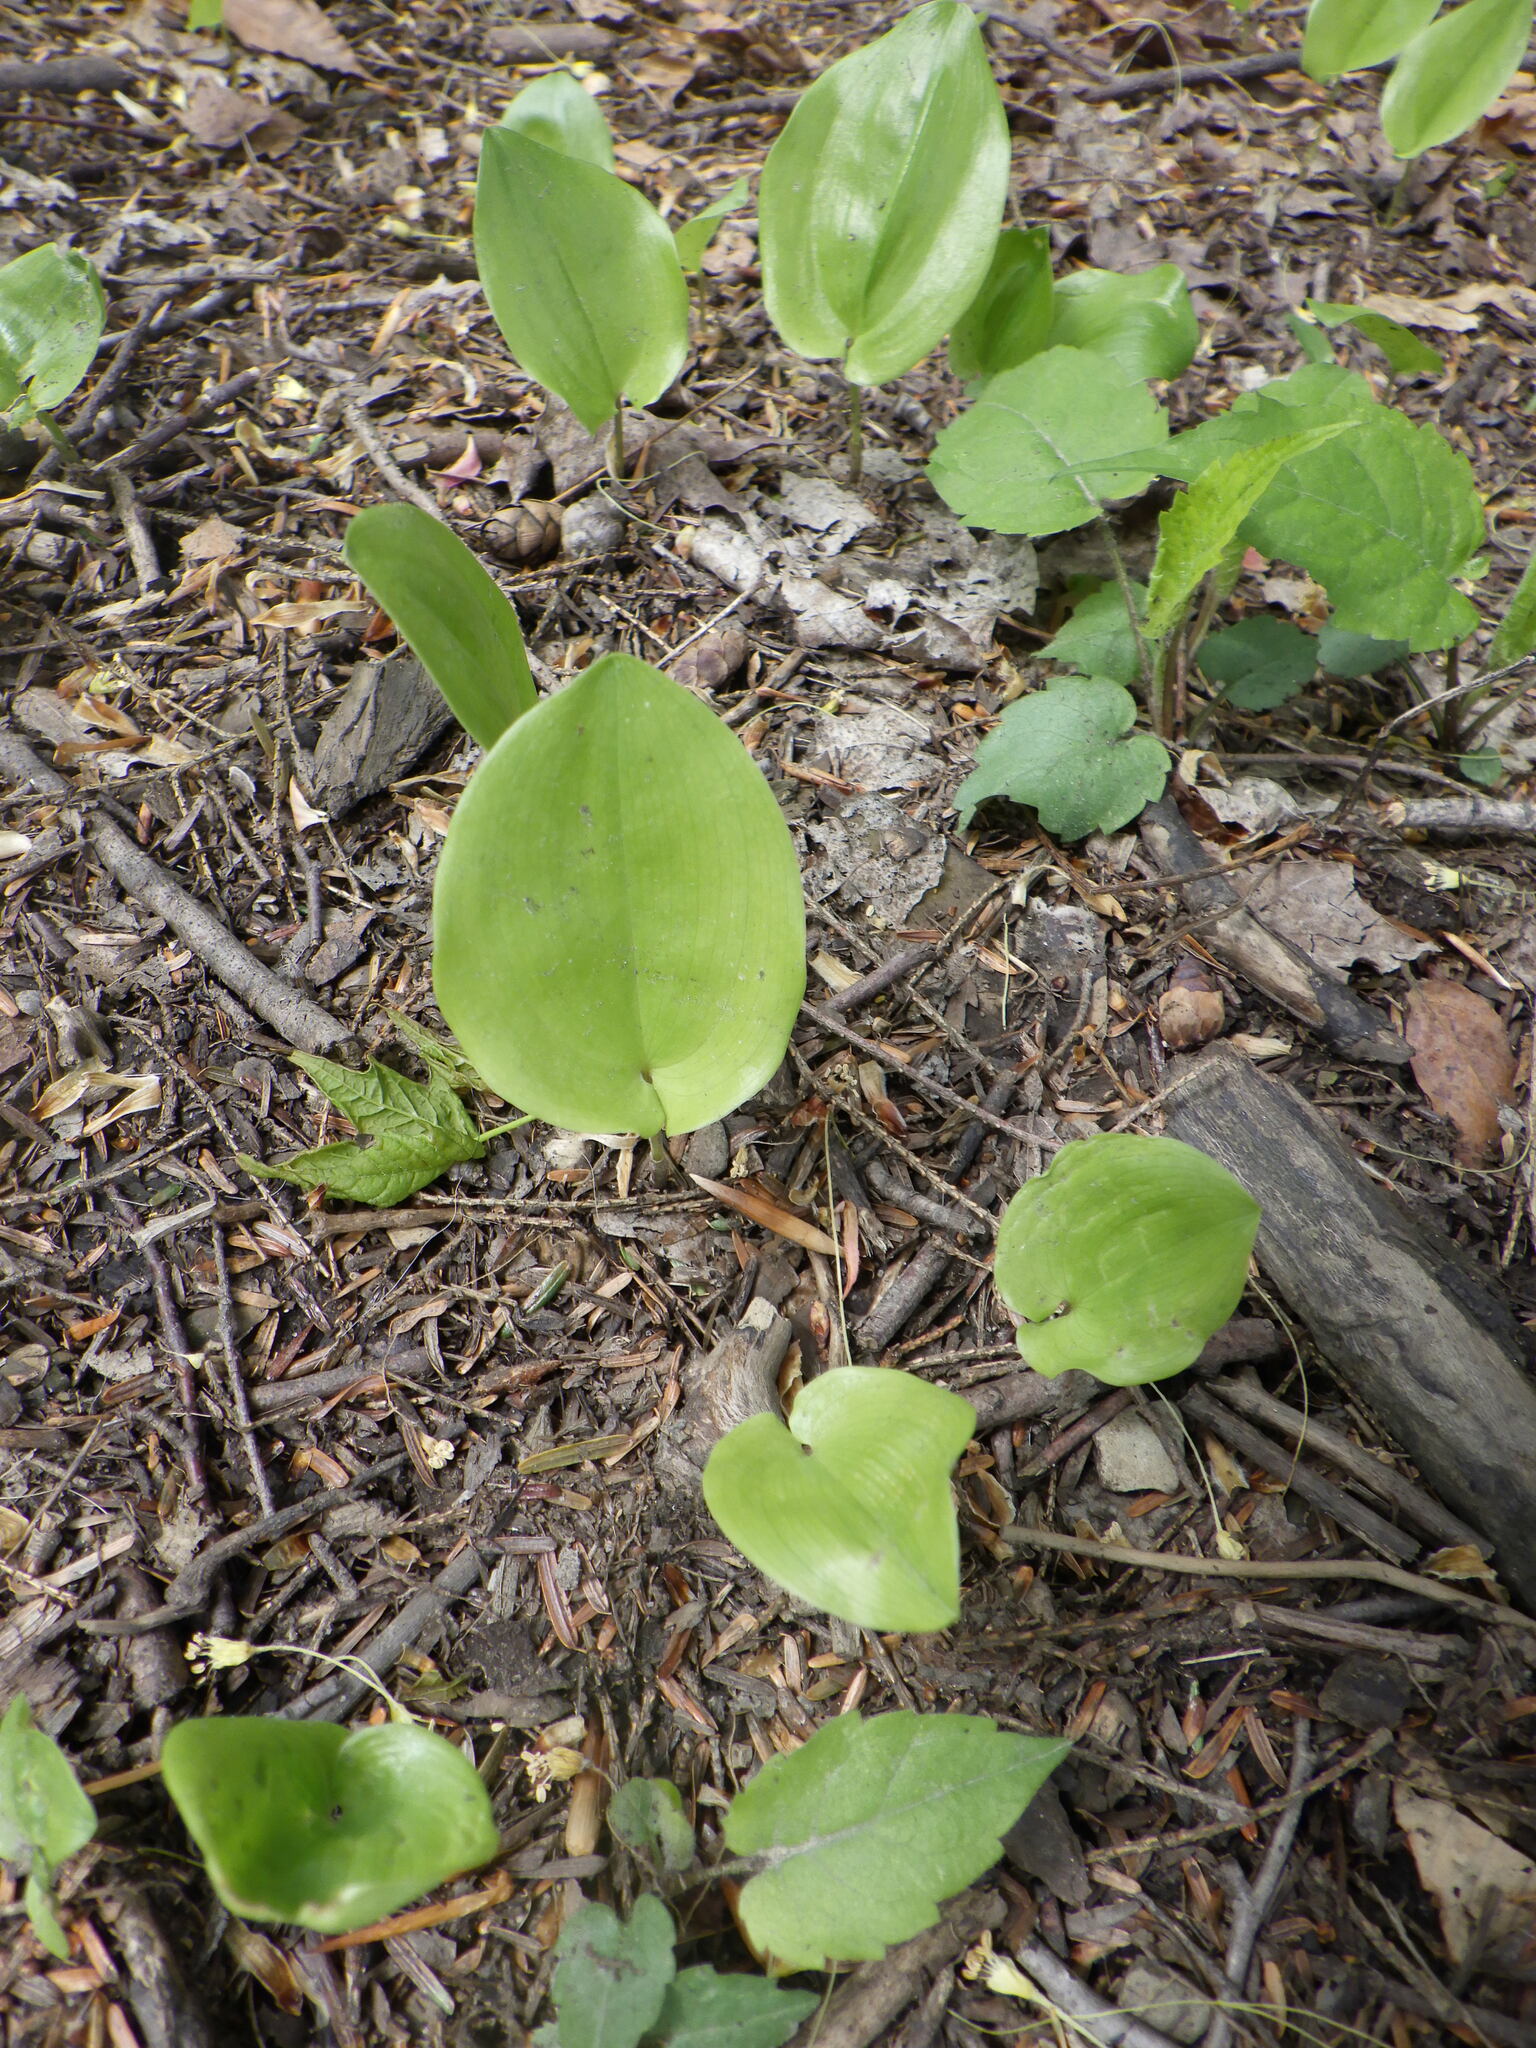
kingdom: Plantae
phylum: Tracheophyta
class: Liliopsida
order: Asparagales
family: Asparagaceae
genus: Maianthemum
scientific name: Maianthemum canadense
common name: False lily-of-the-valley
